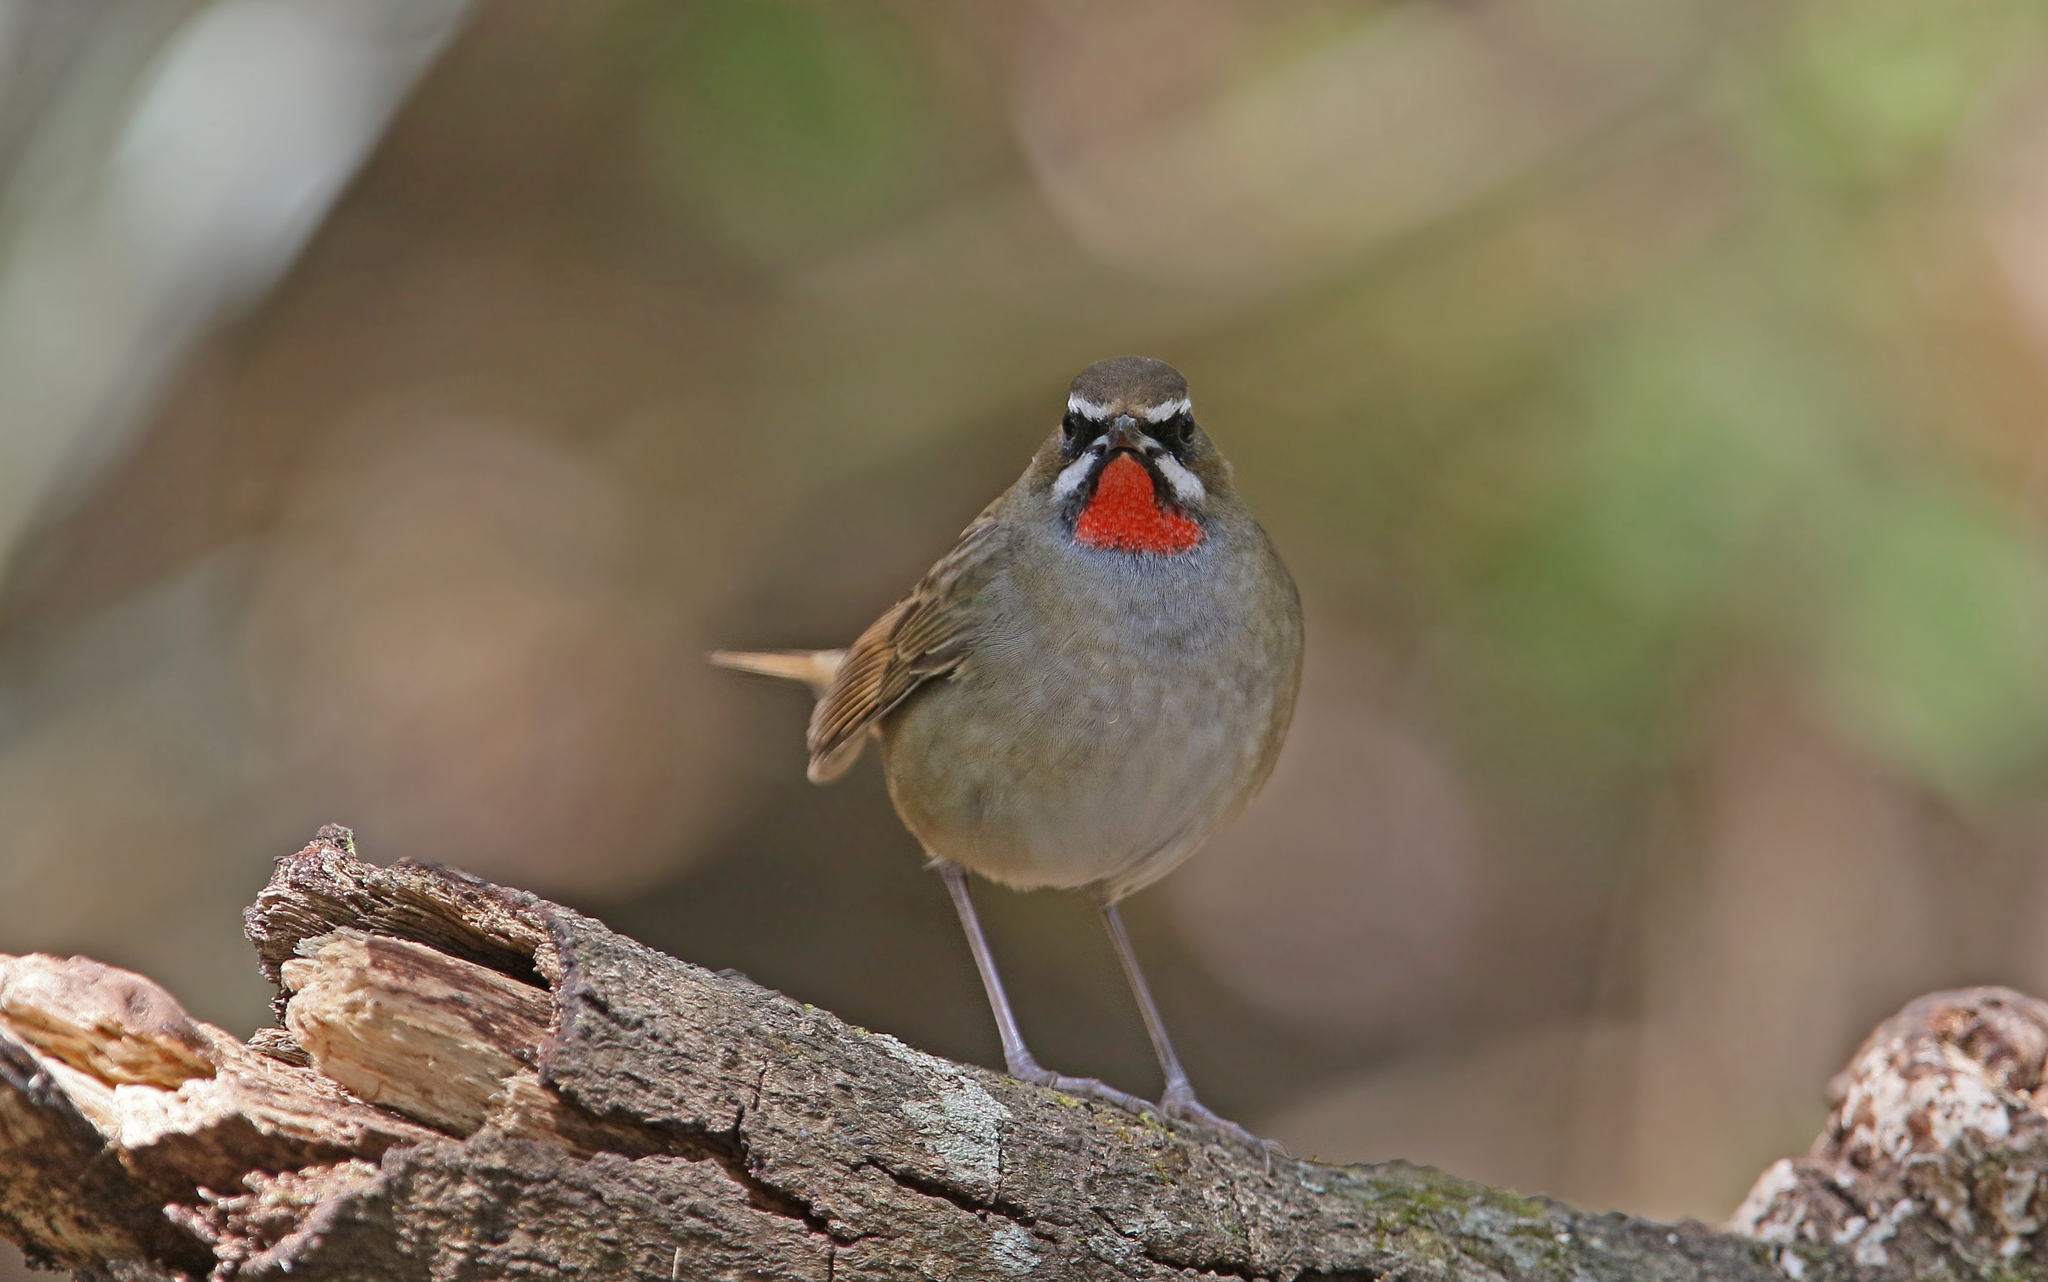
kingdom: Animalia
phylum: Chordata
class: Aves
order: Passeriformes
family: Muscicapidae
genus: Luscinia
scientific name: Luscinia calliope
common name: Siberian rubythroat
